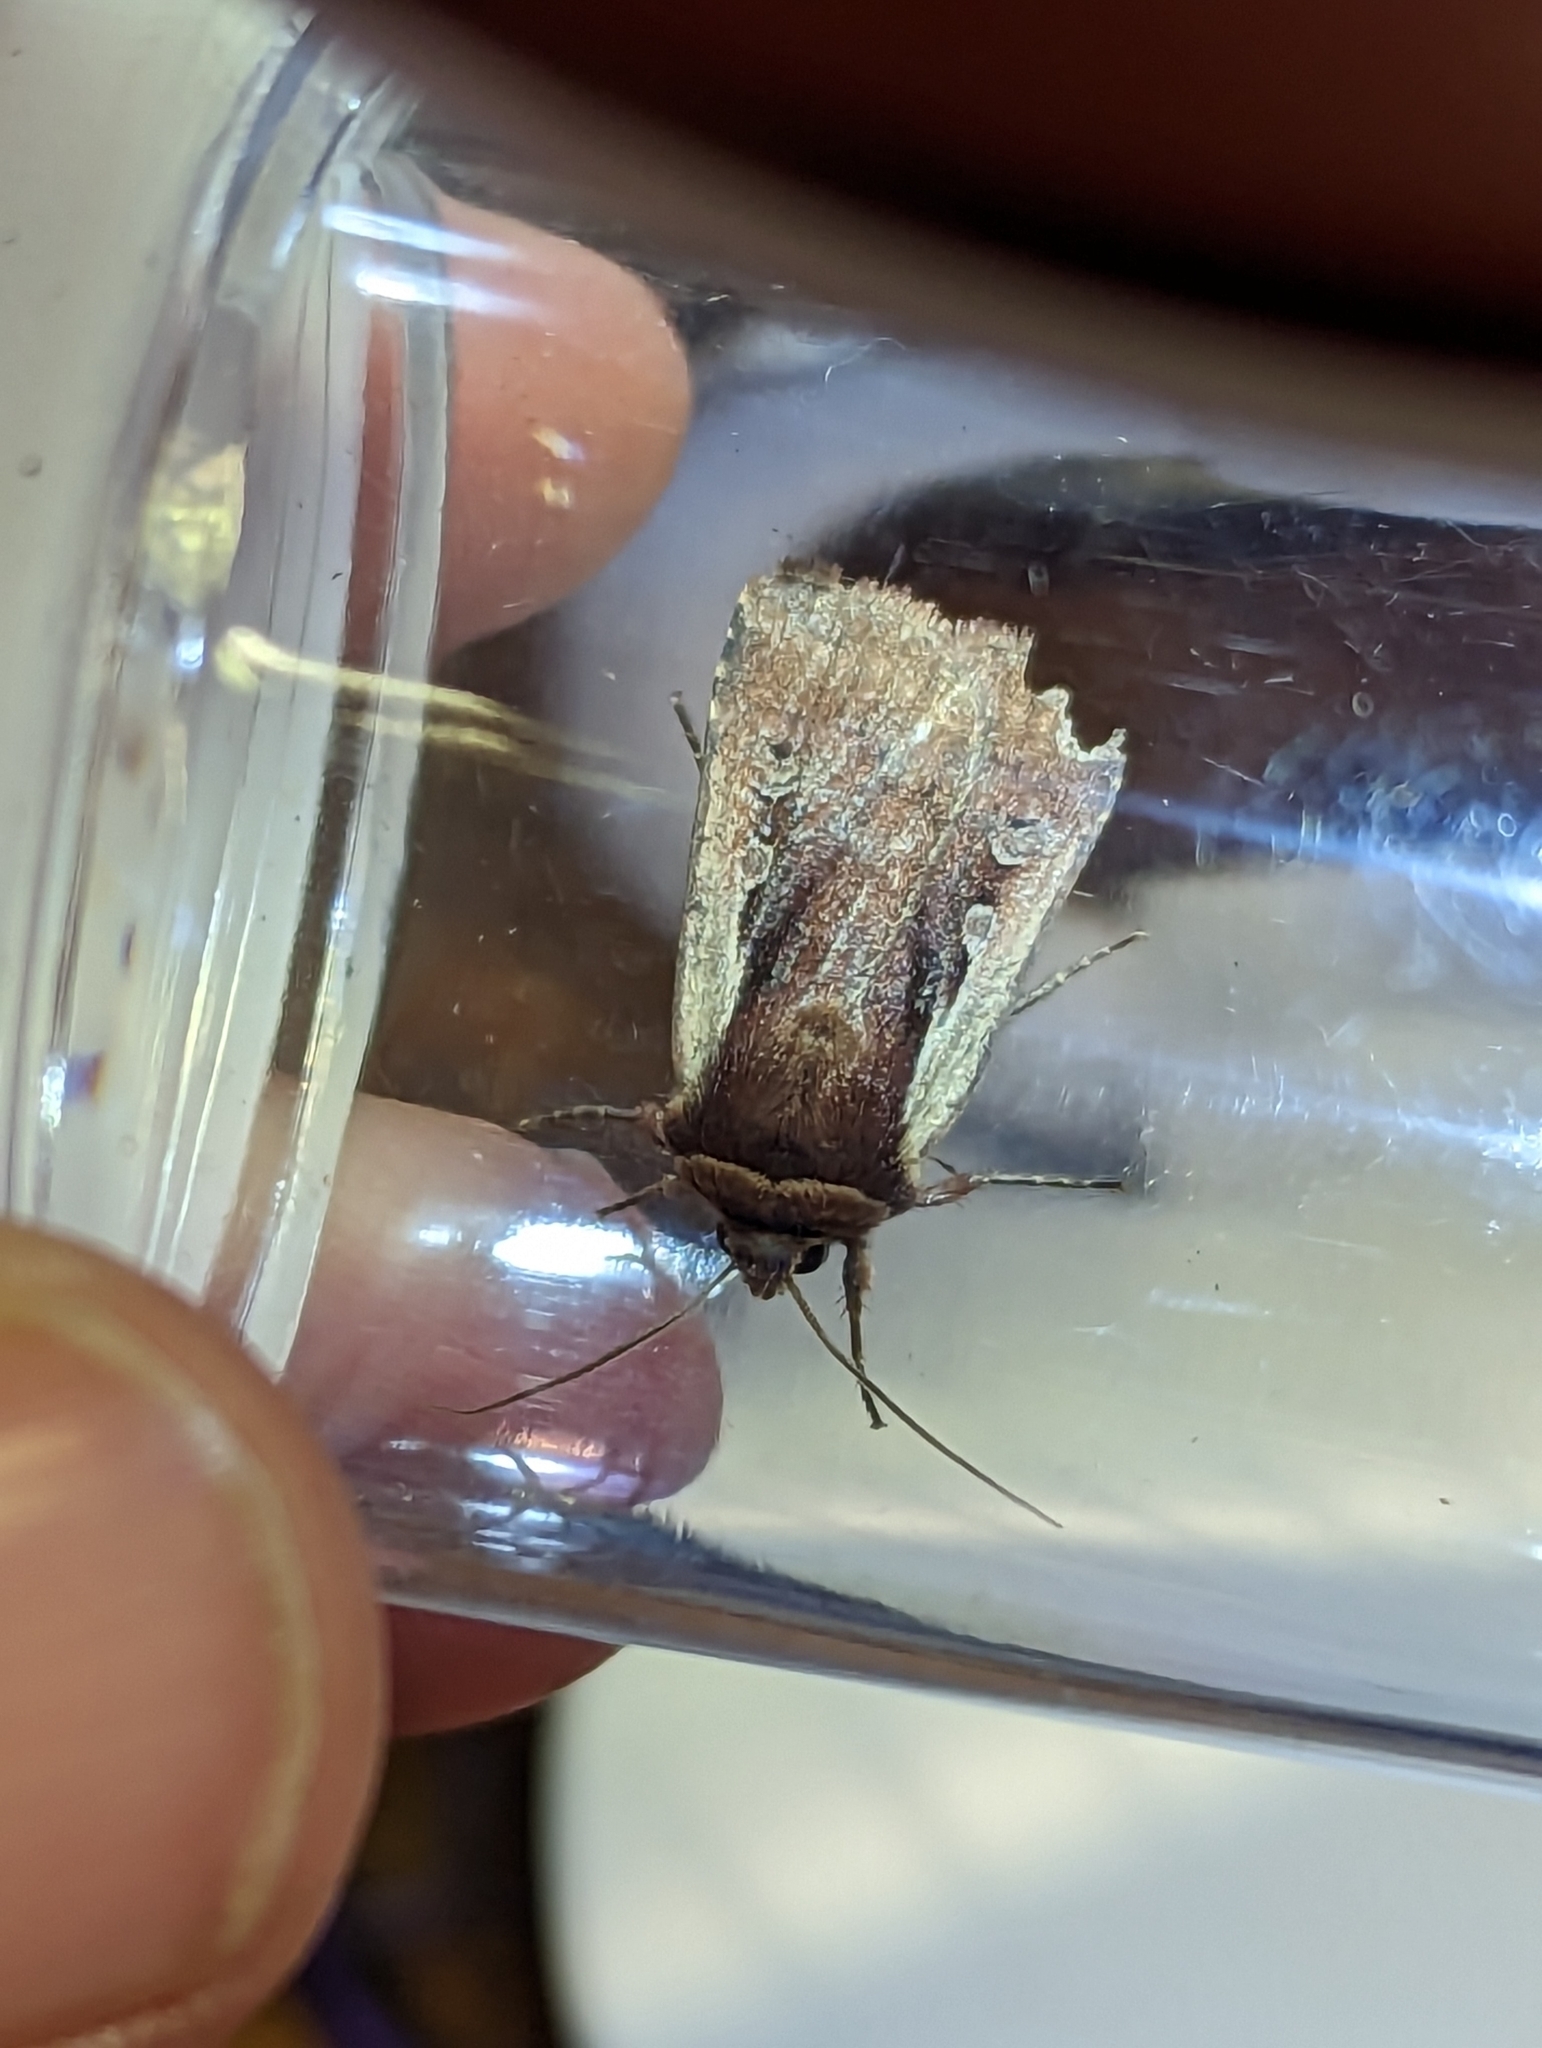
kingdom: Animalia
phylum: Arthropoda
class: Insecta
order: Lepidoptera
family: Noctuidae
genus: Ochropleura
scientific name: Ochropleura plecta
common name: Flame shoulder
